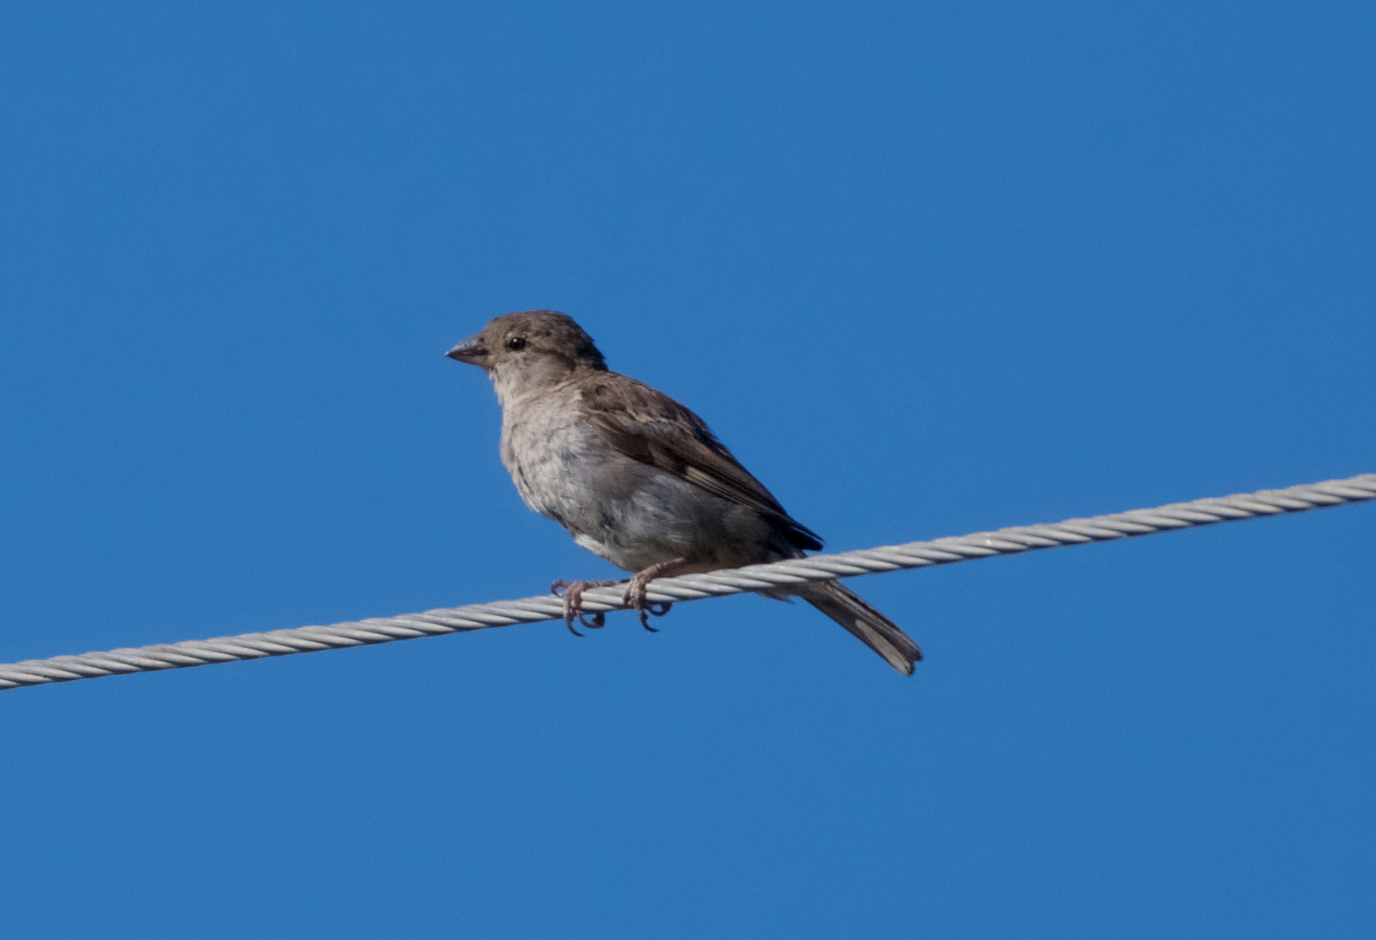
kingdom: Animalia
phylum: Chordata
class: Aves
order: Passeriformes
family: Passeridae
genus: Passer
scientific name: Passer domesticus
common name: House sparrow
